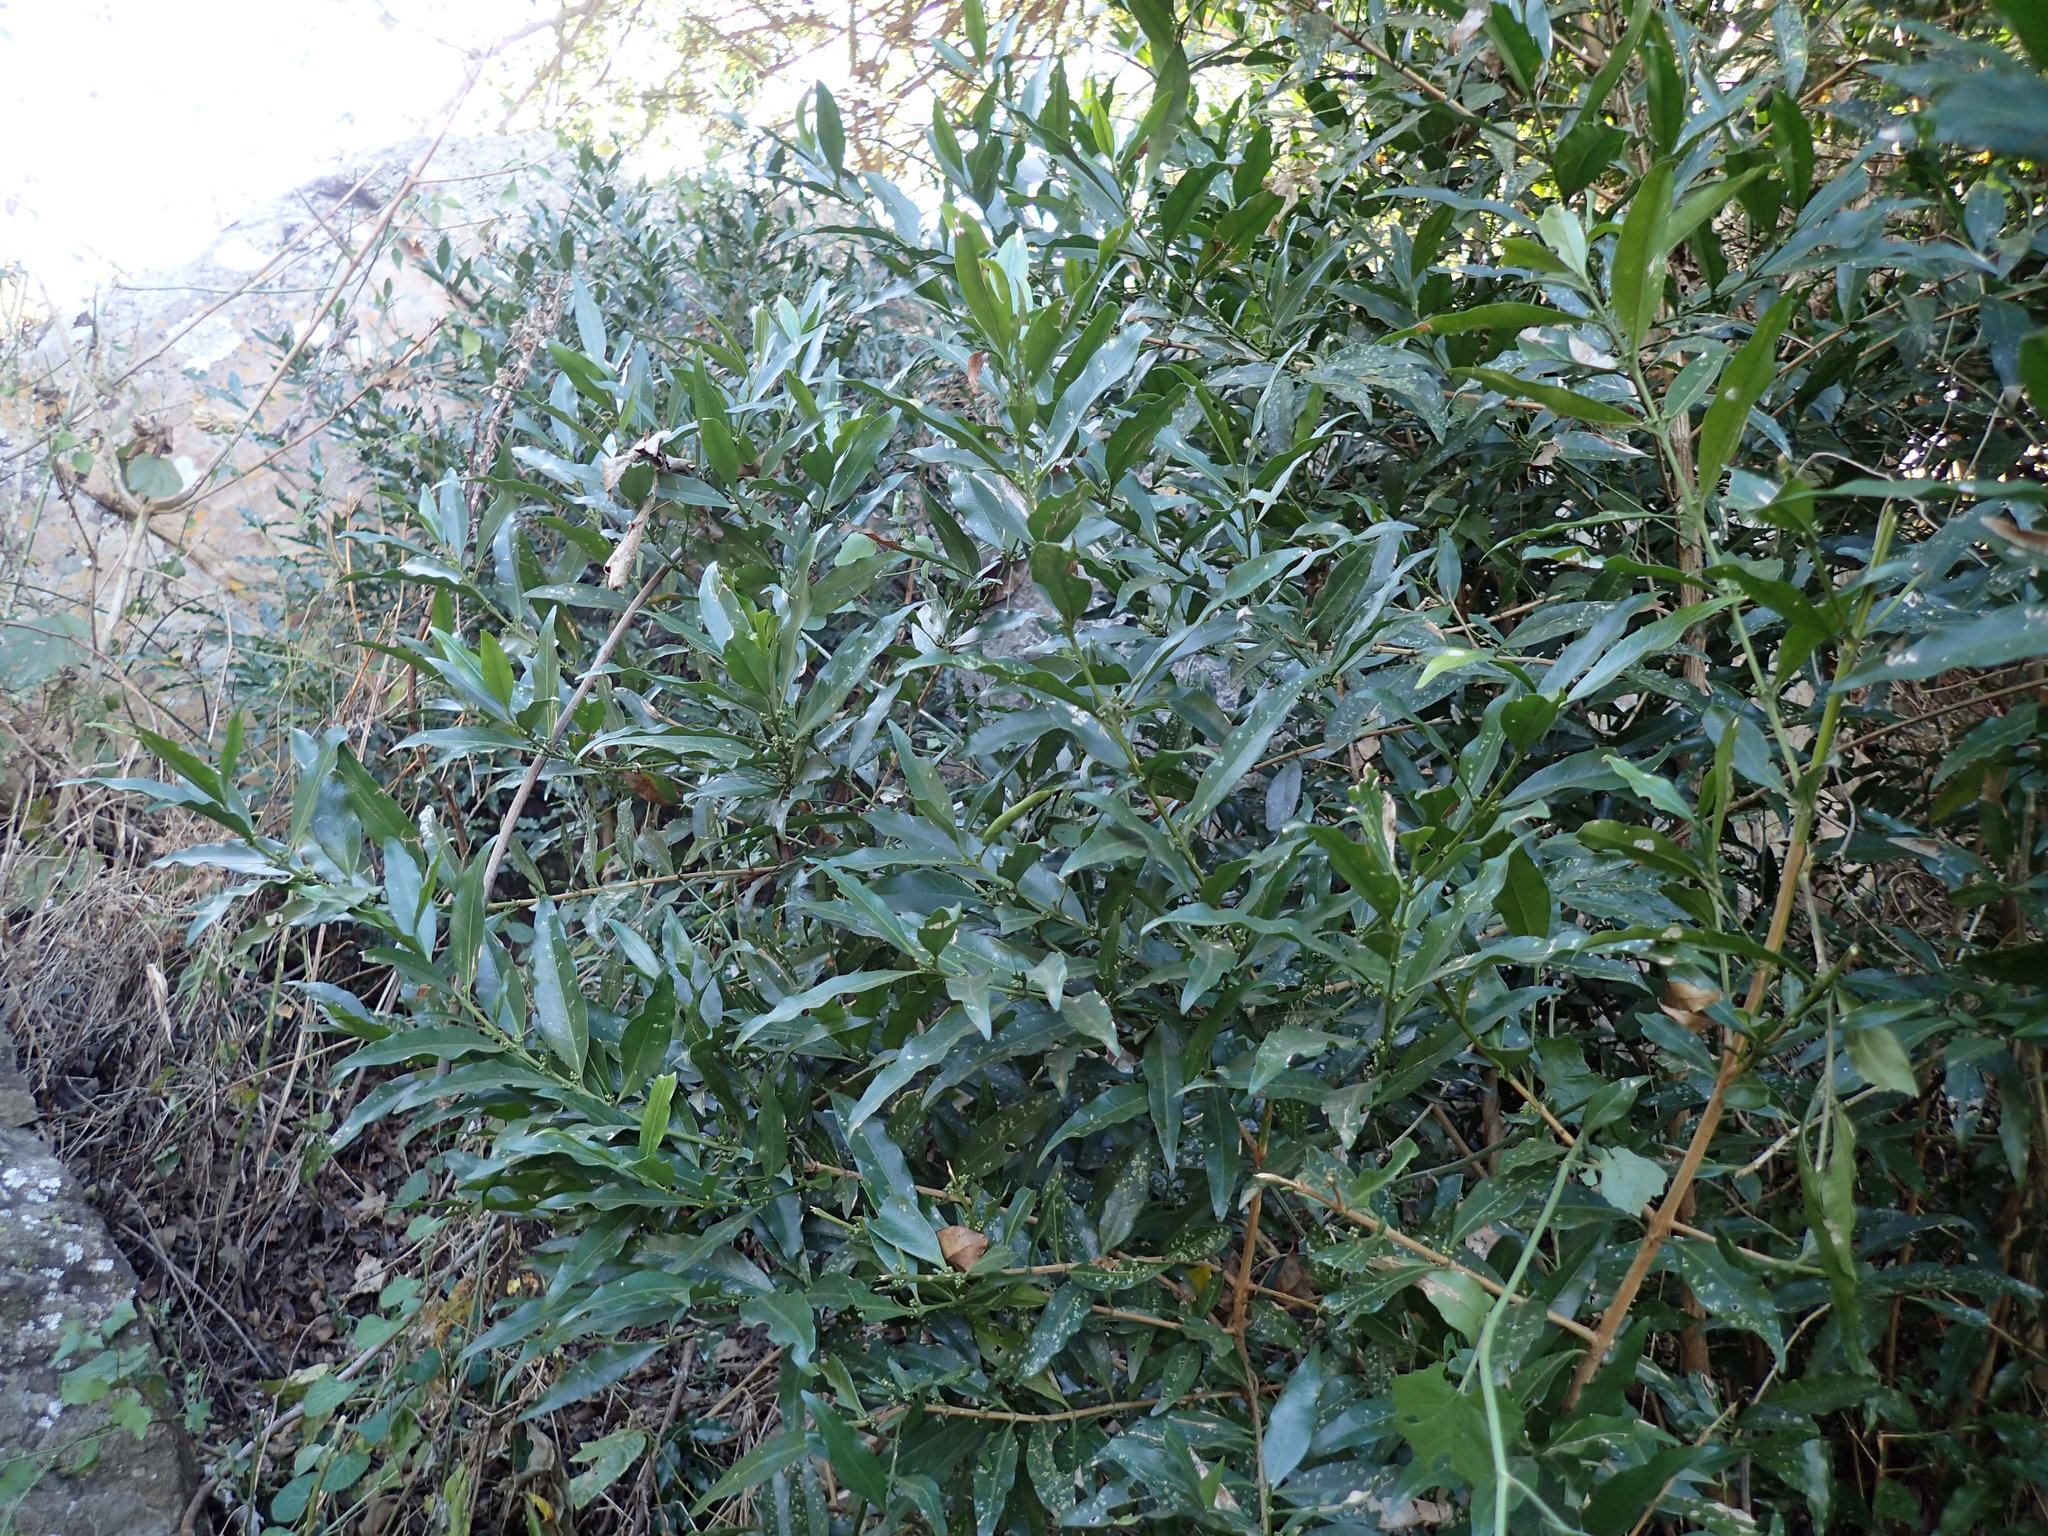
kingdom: Plantae
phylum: Tracheophyta
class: Magnoliopsida
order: Gentianales
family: Rubiaceae
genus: Empogona
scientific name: Empogona lanceolata
